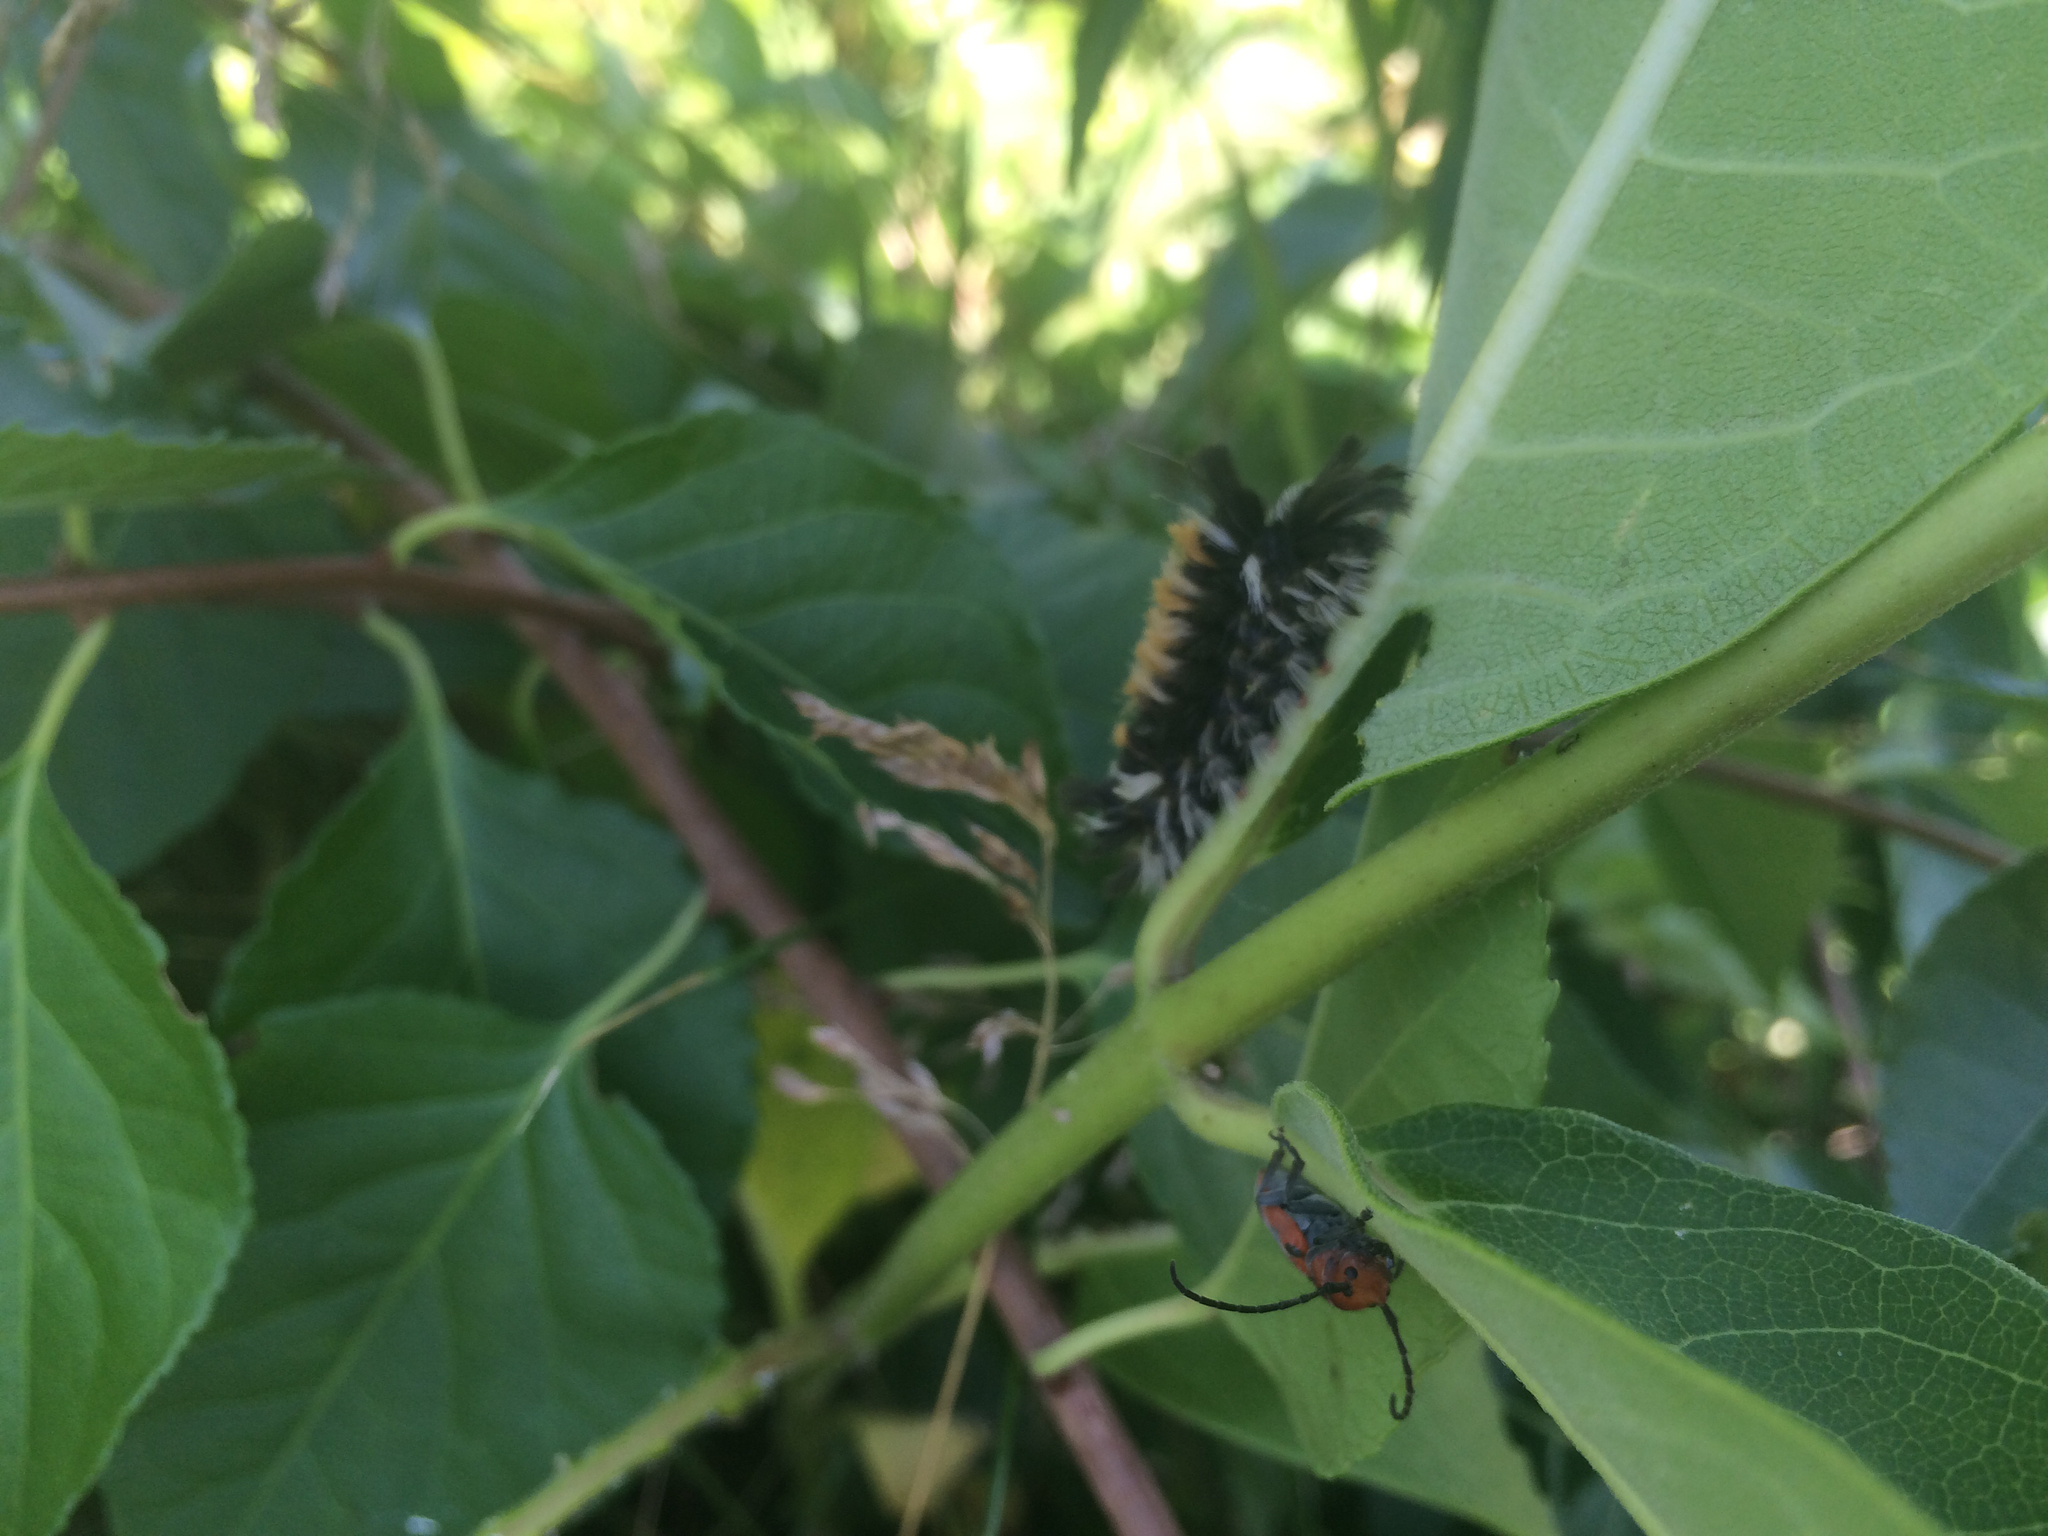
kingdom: Animalia
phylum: Arthropoda
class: Insecta
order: Lepidoptera
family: Erebidae
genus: Euchaetes
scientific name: Euchaetes egle
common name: Milkweed tussock moth
